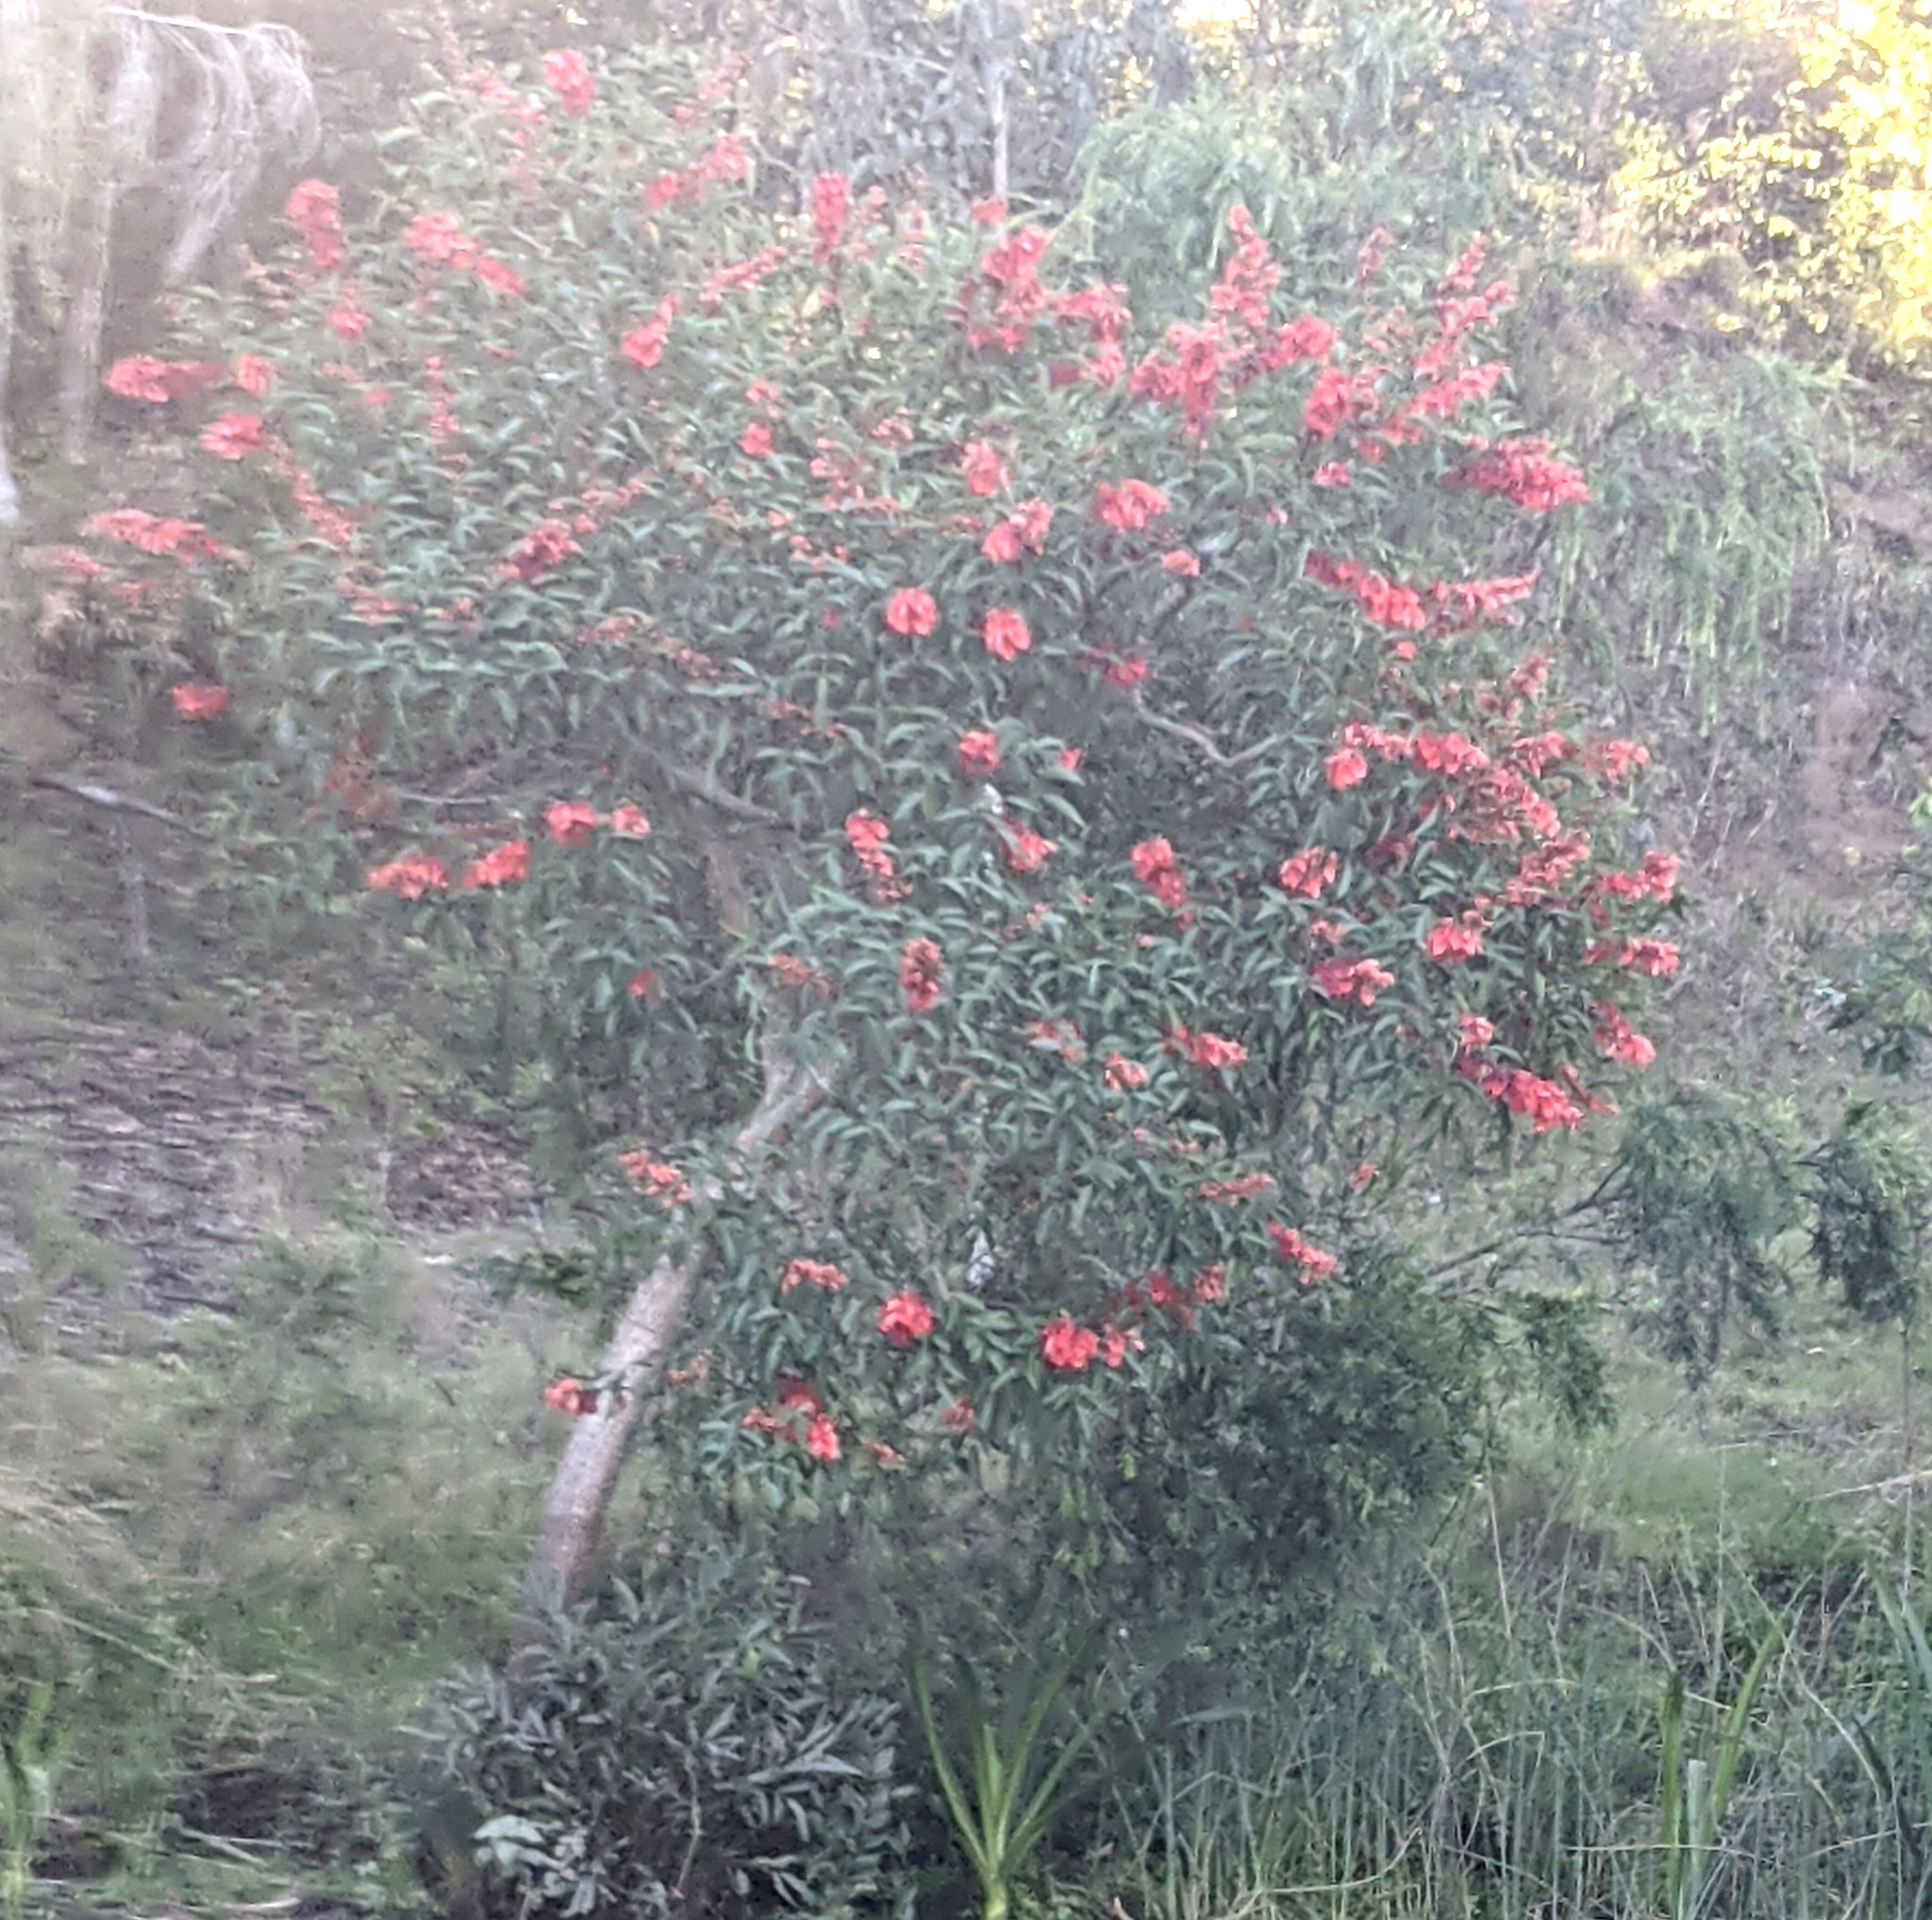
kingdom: Plantae
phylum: Tracheophyta
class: Magnoliopsida
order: Fabales
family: Fabaceae
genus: Erythrina
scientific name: Erythrina crista-galli
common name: Cockspur coral tree
